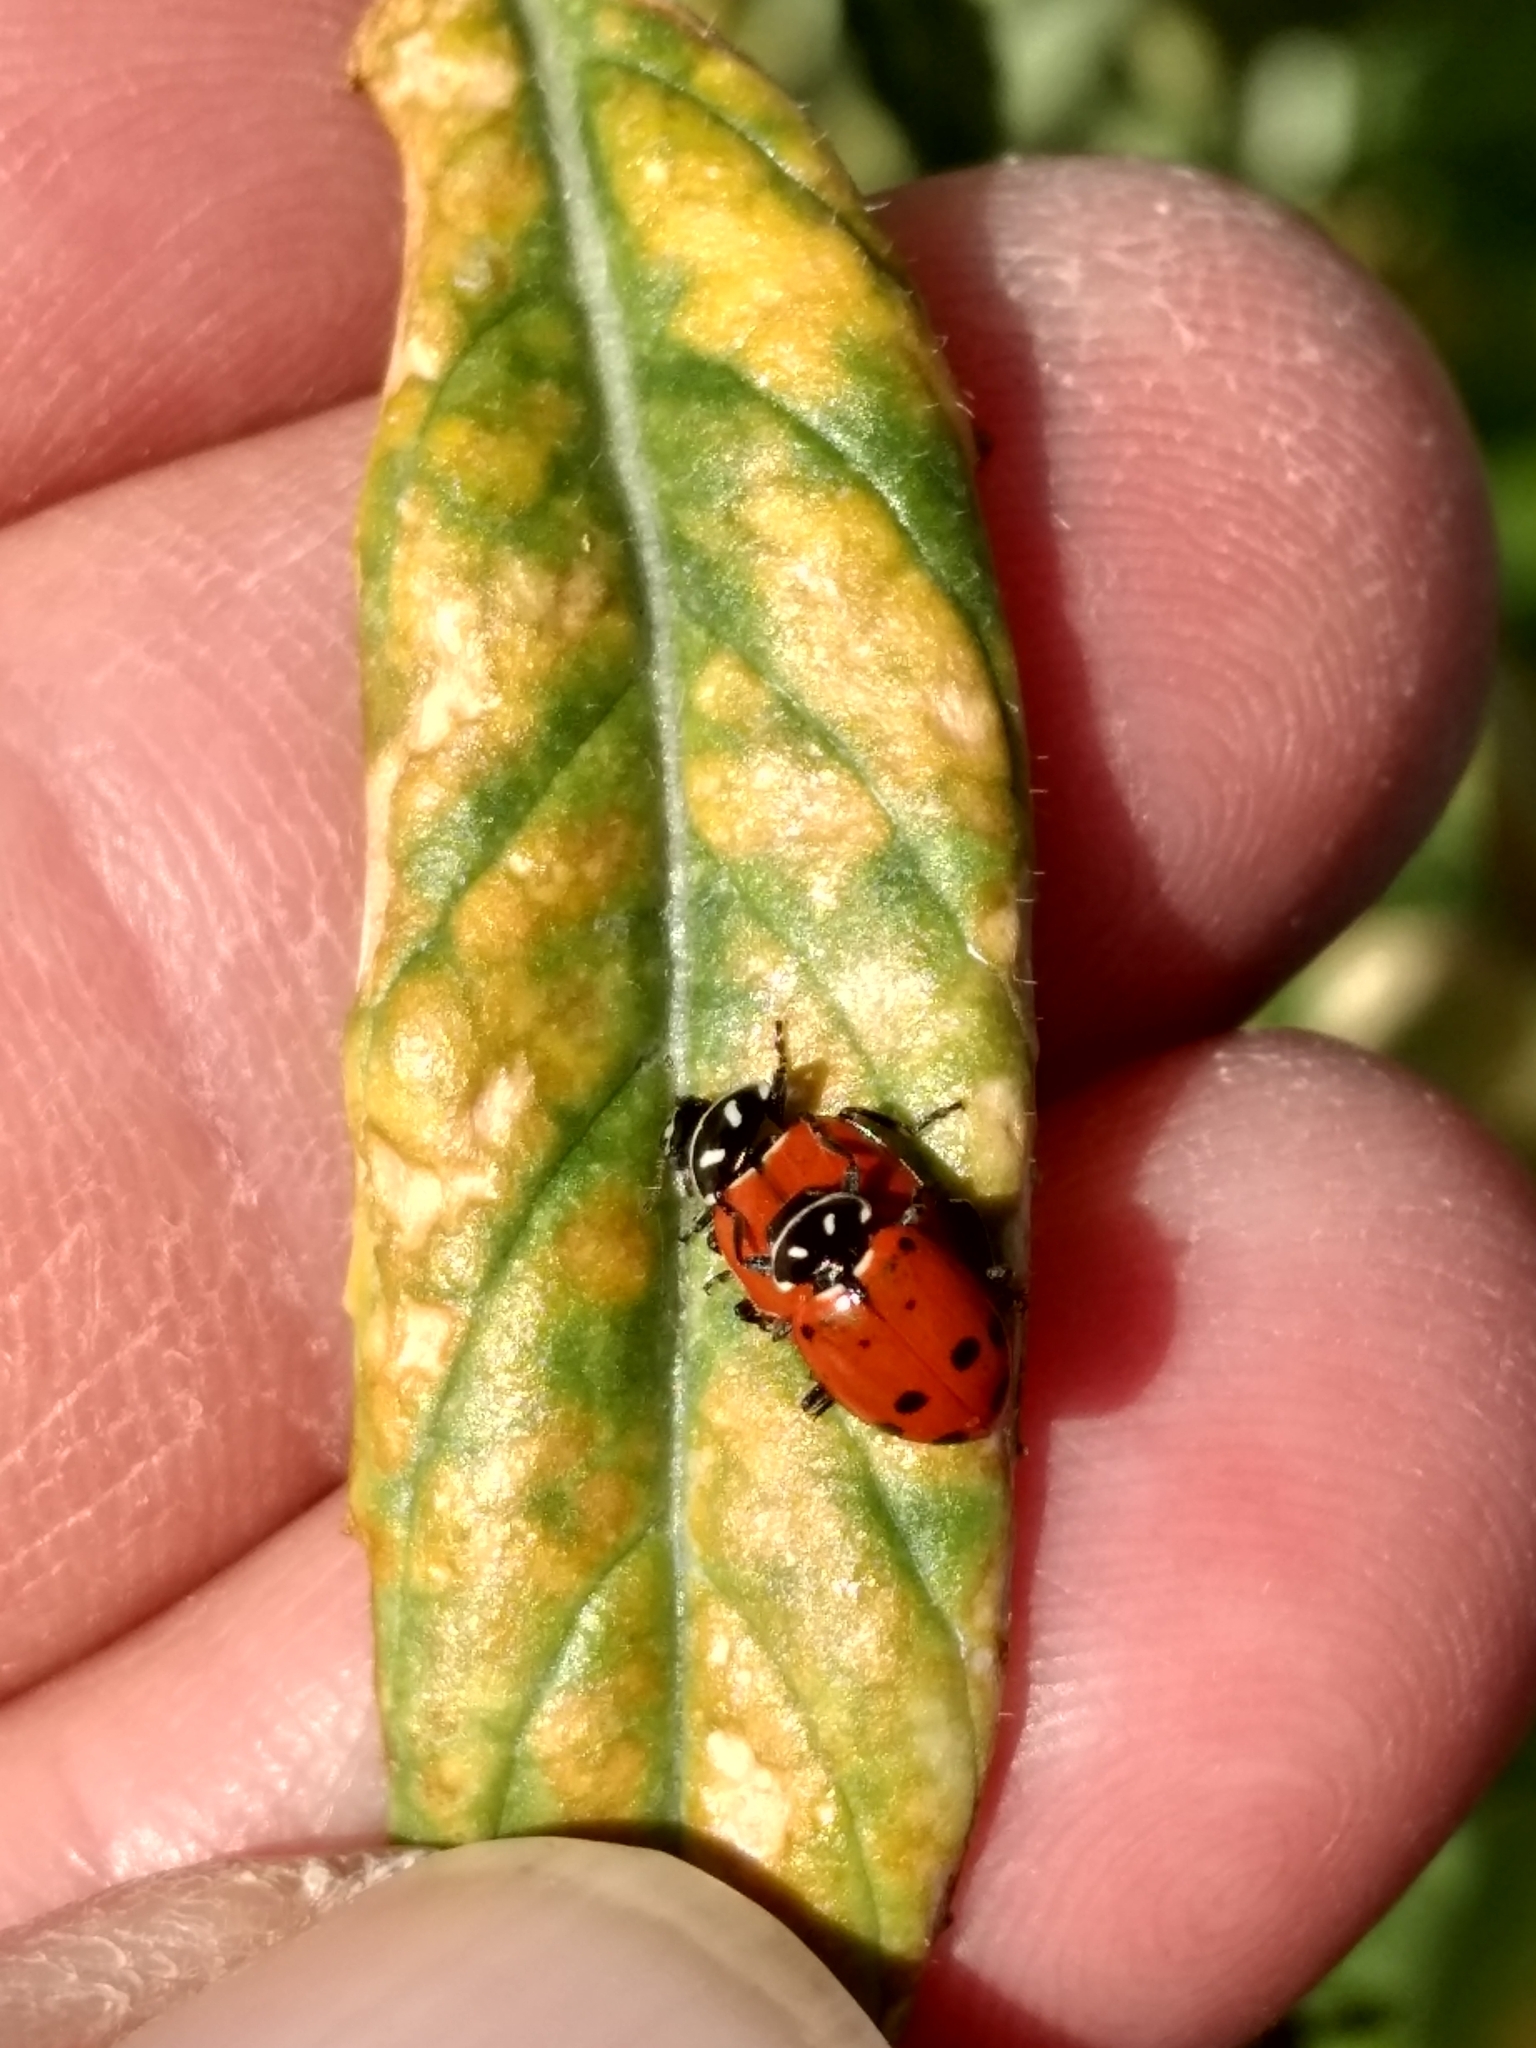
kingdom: Animalia
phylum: Arthropoda
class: Insecta
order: Coleoptera
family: Coccinellidae
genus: Hippodamia
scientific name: Hippodamia convergens
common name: Convergent lady beetle
